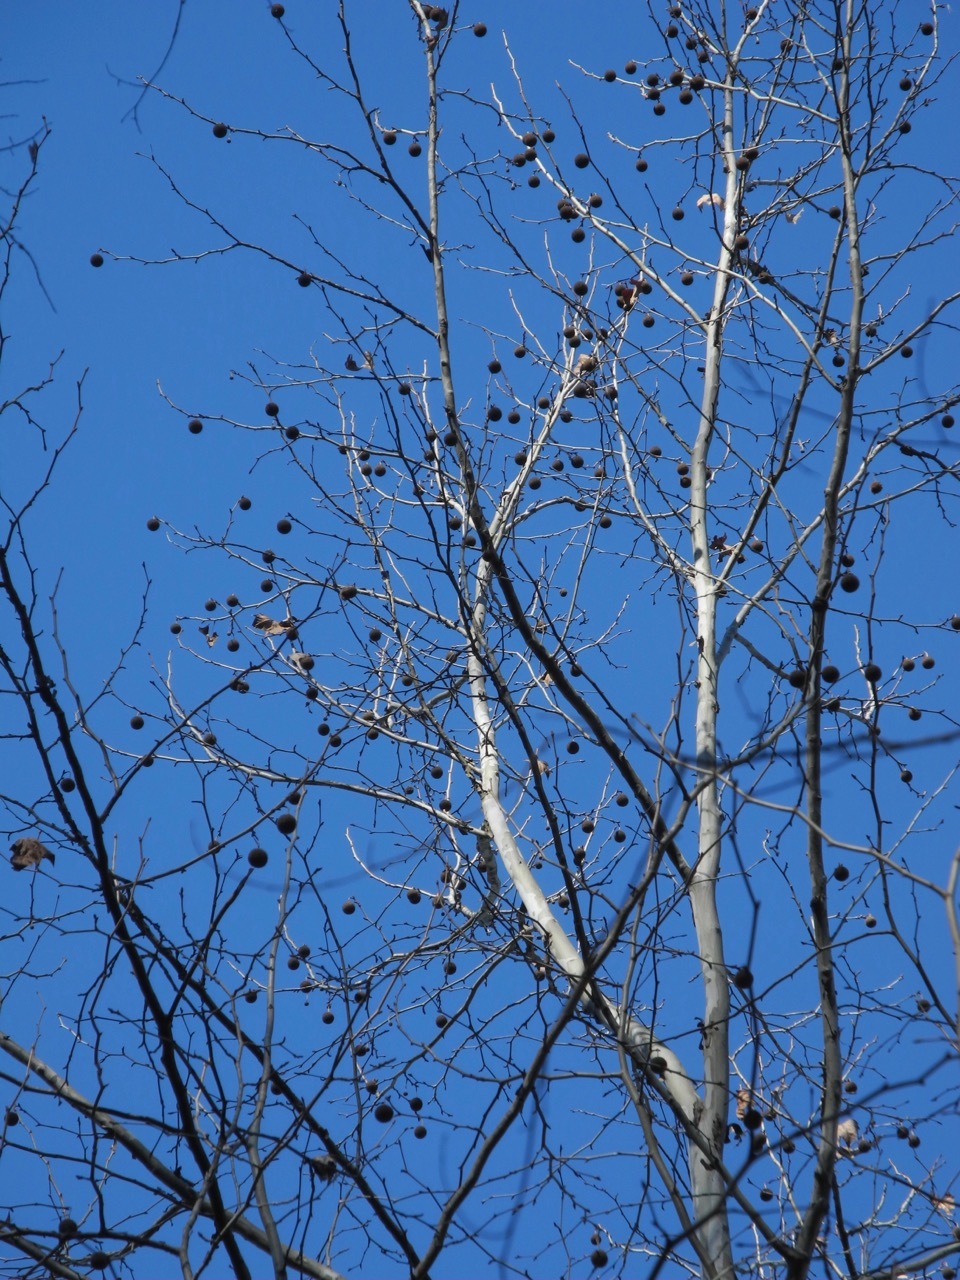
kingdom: Plantae
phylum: Tracheophyta
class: Magnoliopsida
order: Proteales
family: Platanaceae
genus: Platanus
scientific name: Platanus occidentalis
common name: American sycamore
